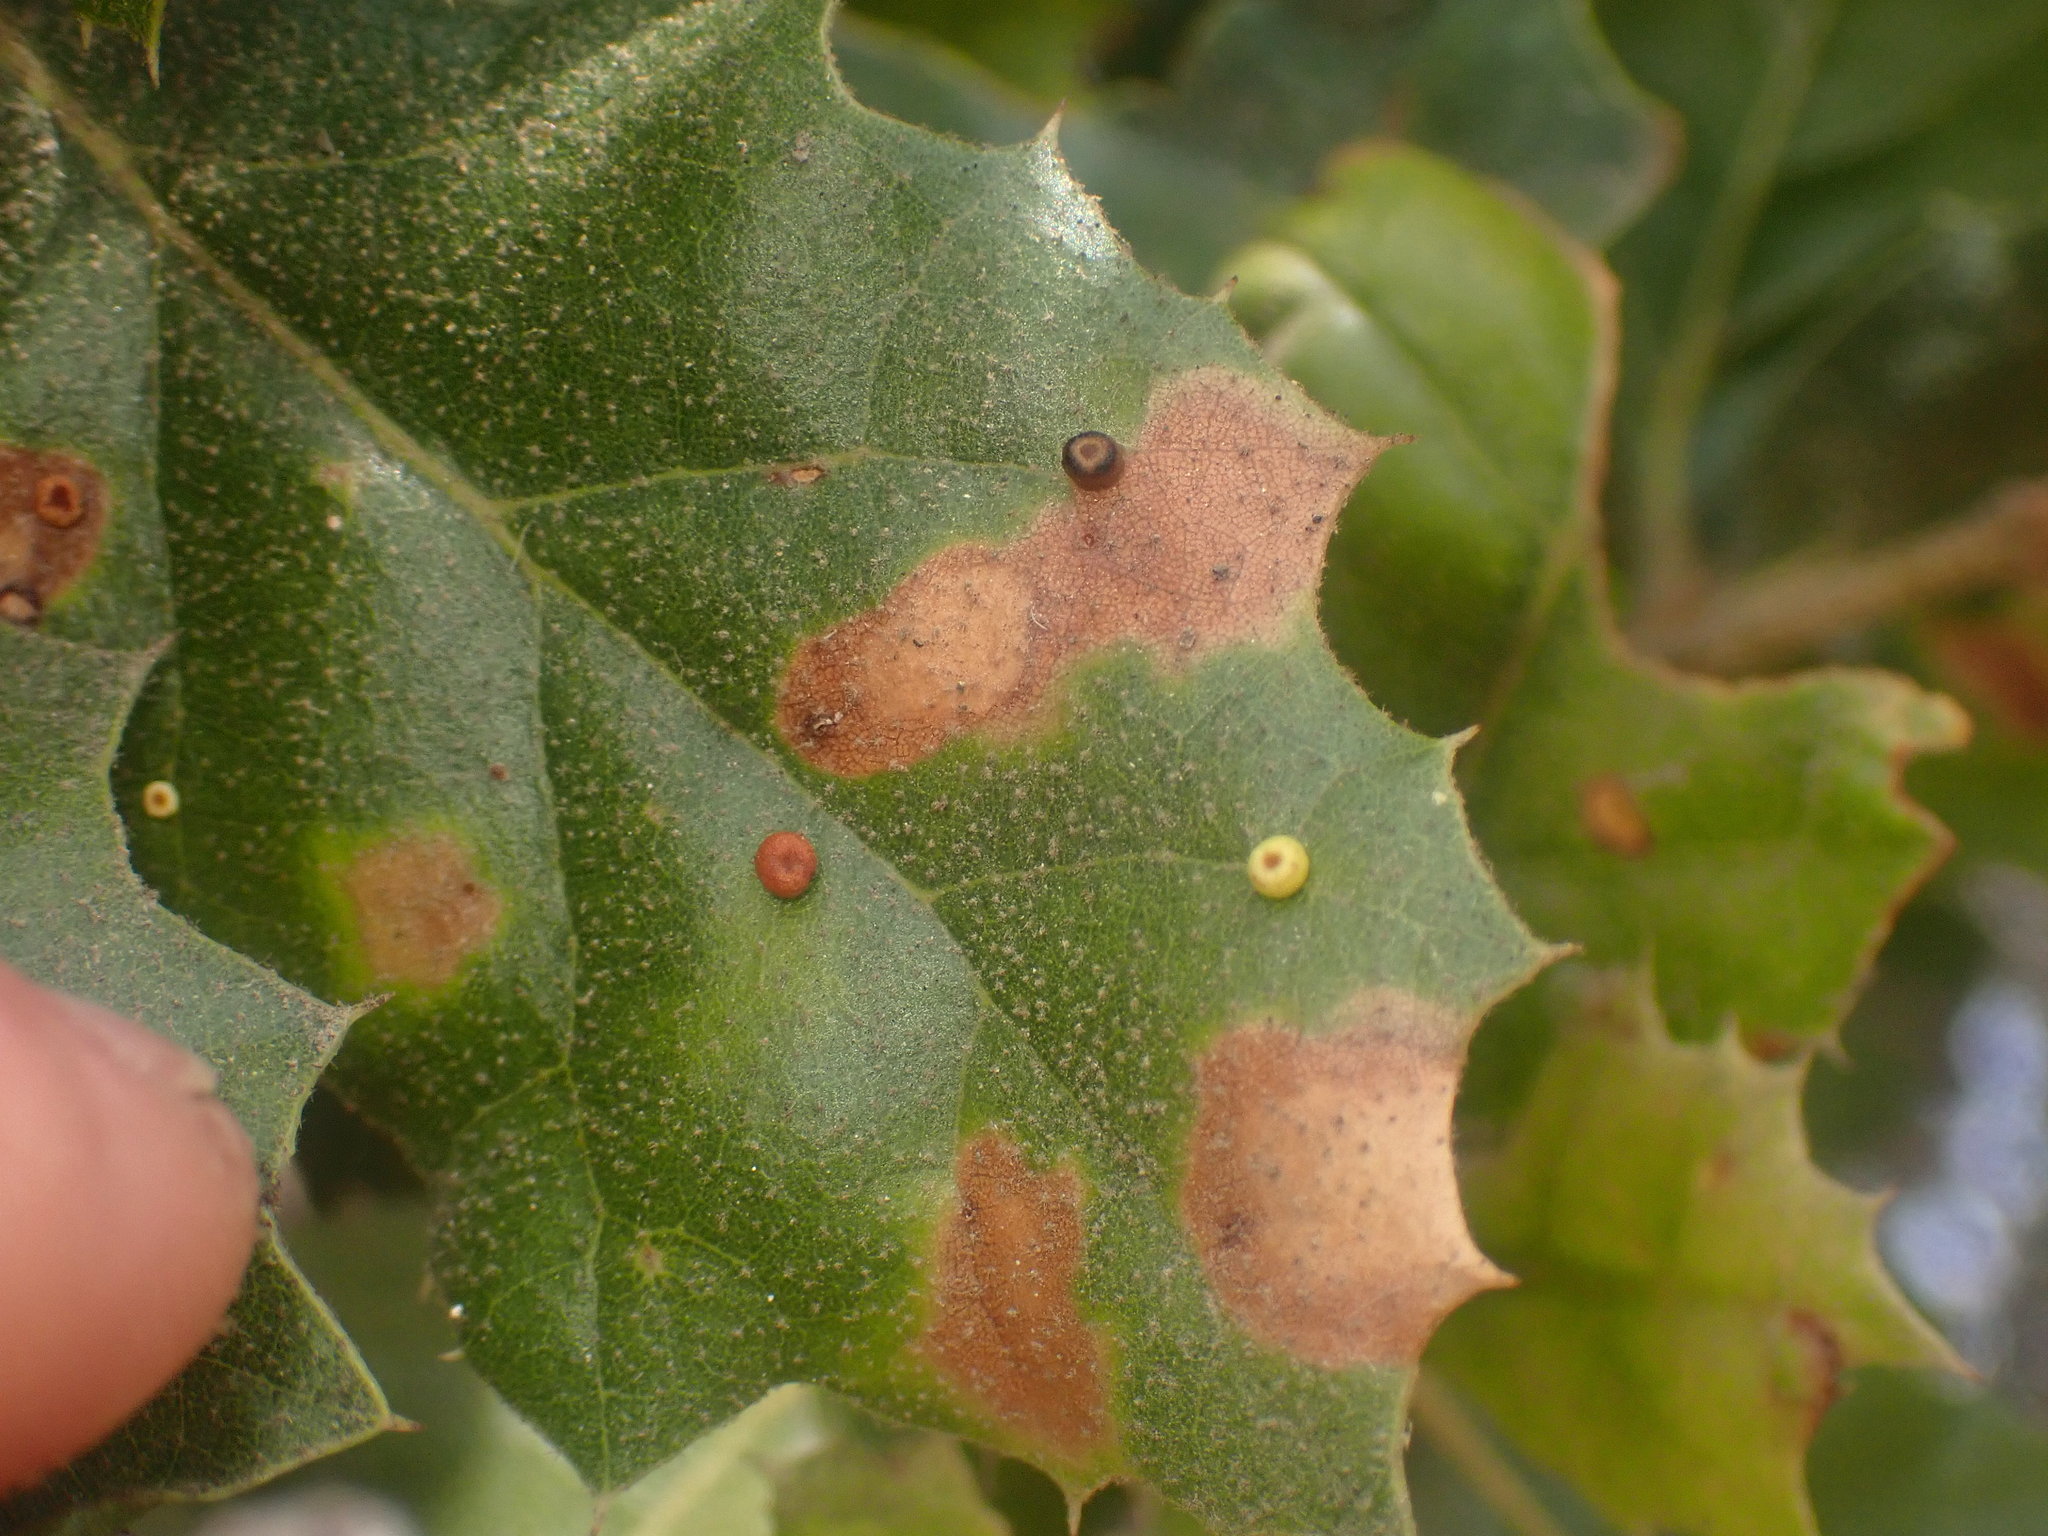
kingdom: Animalia
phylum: Arthropoda
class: Insecta
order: Hymenoptera
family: Cynipidae
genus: Dryocosmus
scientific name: Dryocosmus
